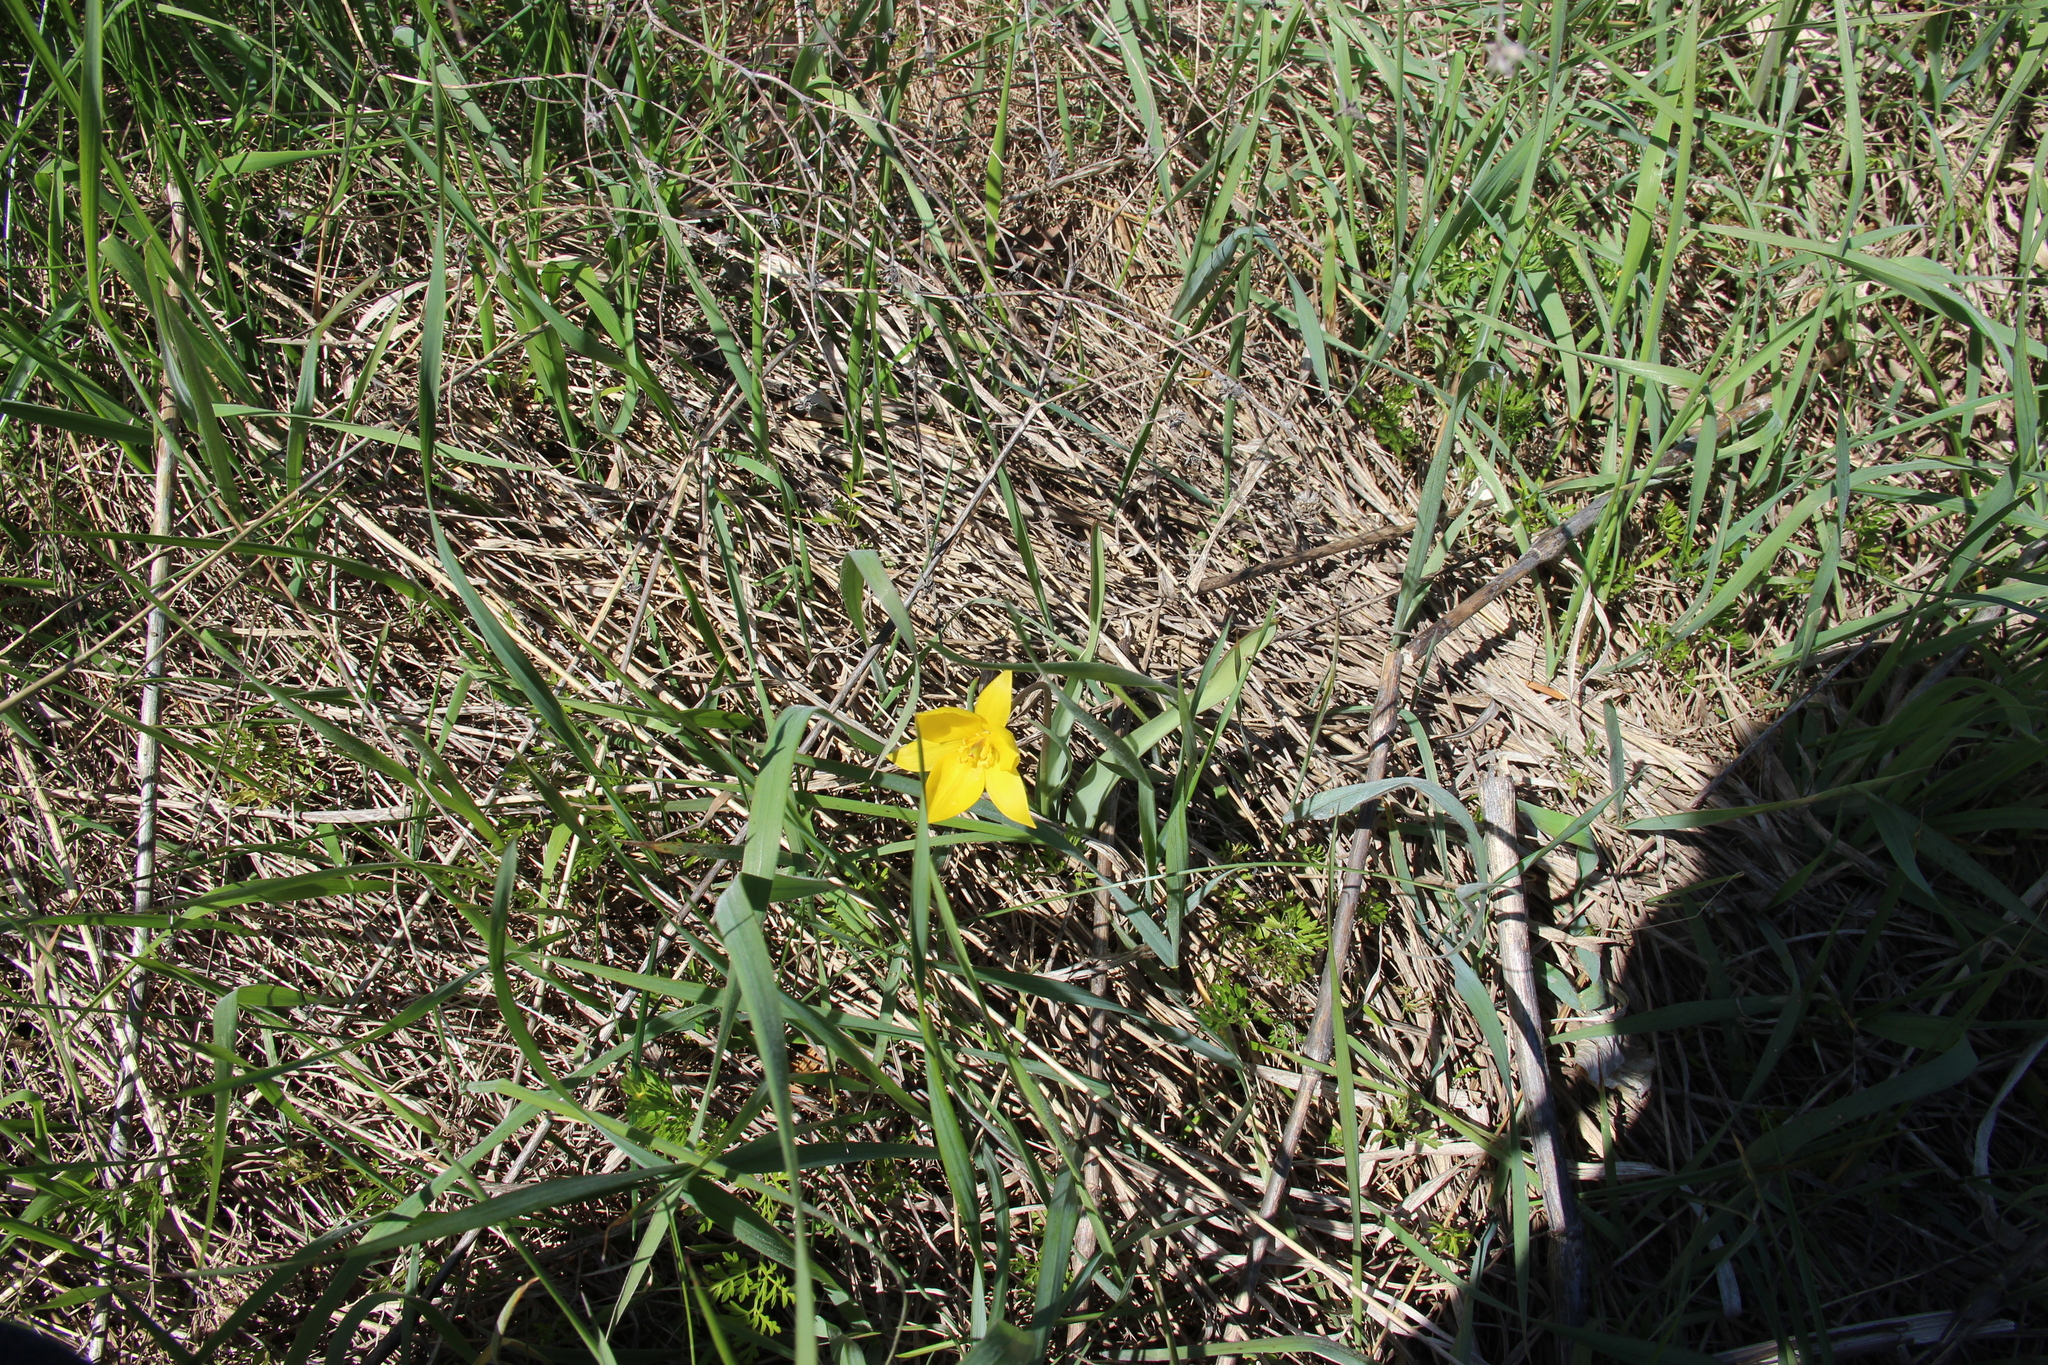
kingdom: Plantae
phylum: Tracheophyta
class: Liliopsida
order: Liliales
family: Liliaceae
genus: Tulipa
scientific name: Tulipa sylvestris
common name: Wild tulip
